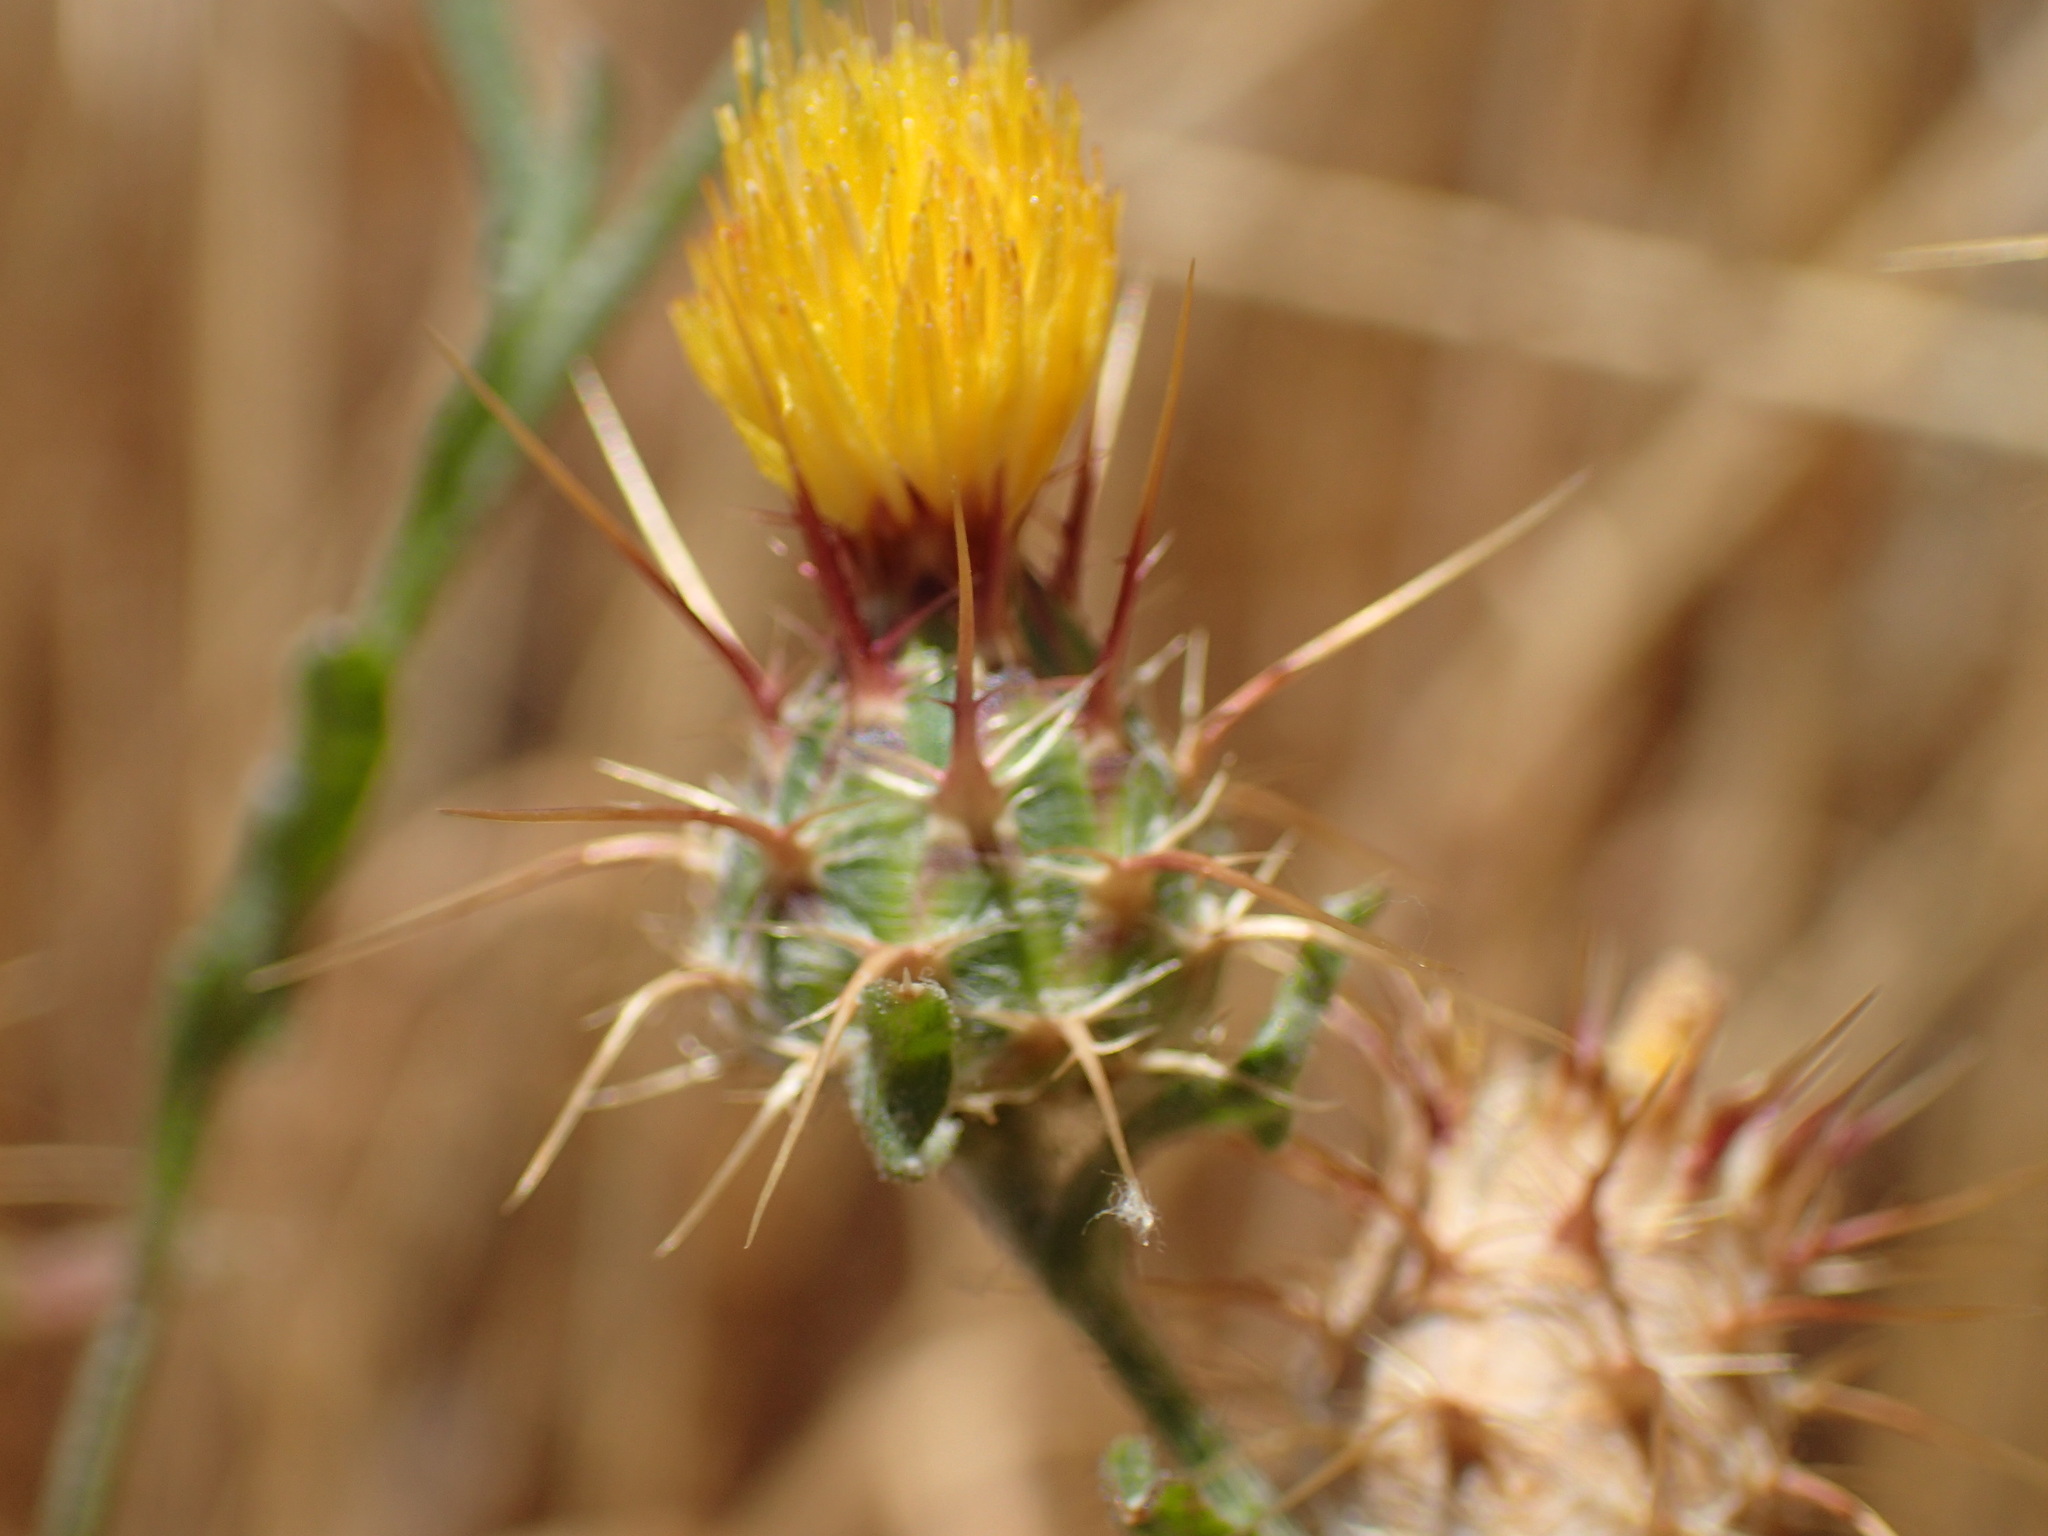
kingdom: Plantae
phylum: Tracheophyta
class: Magnoliopsida
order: Asterales
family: Asteraceae
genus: Centaurea
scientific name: Centaurea melitensis
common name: Maltese star-thistle
